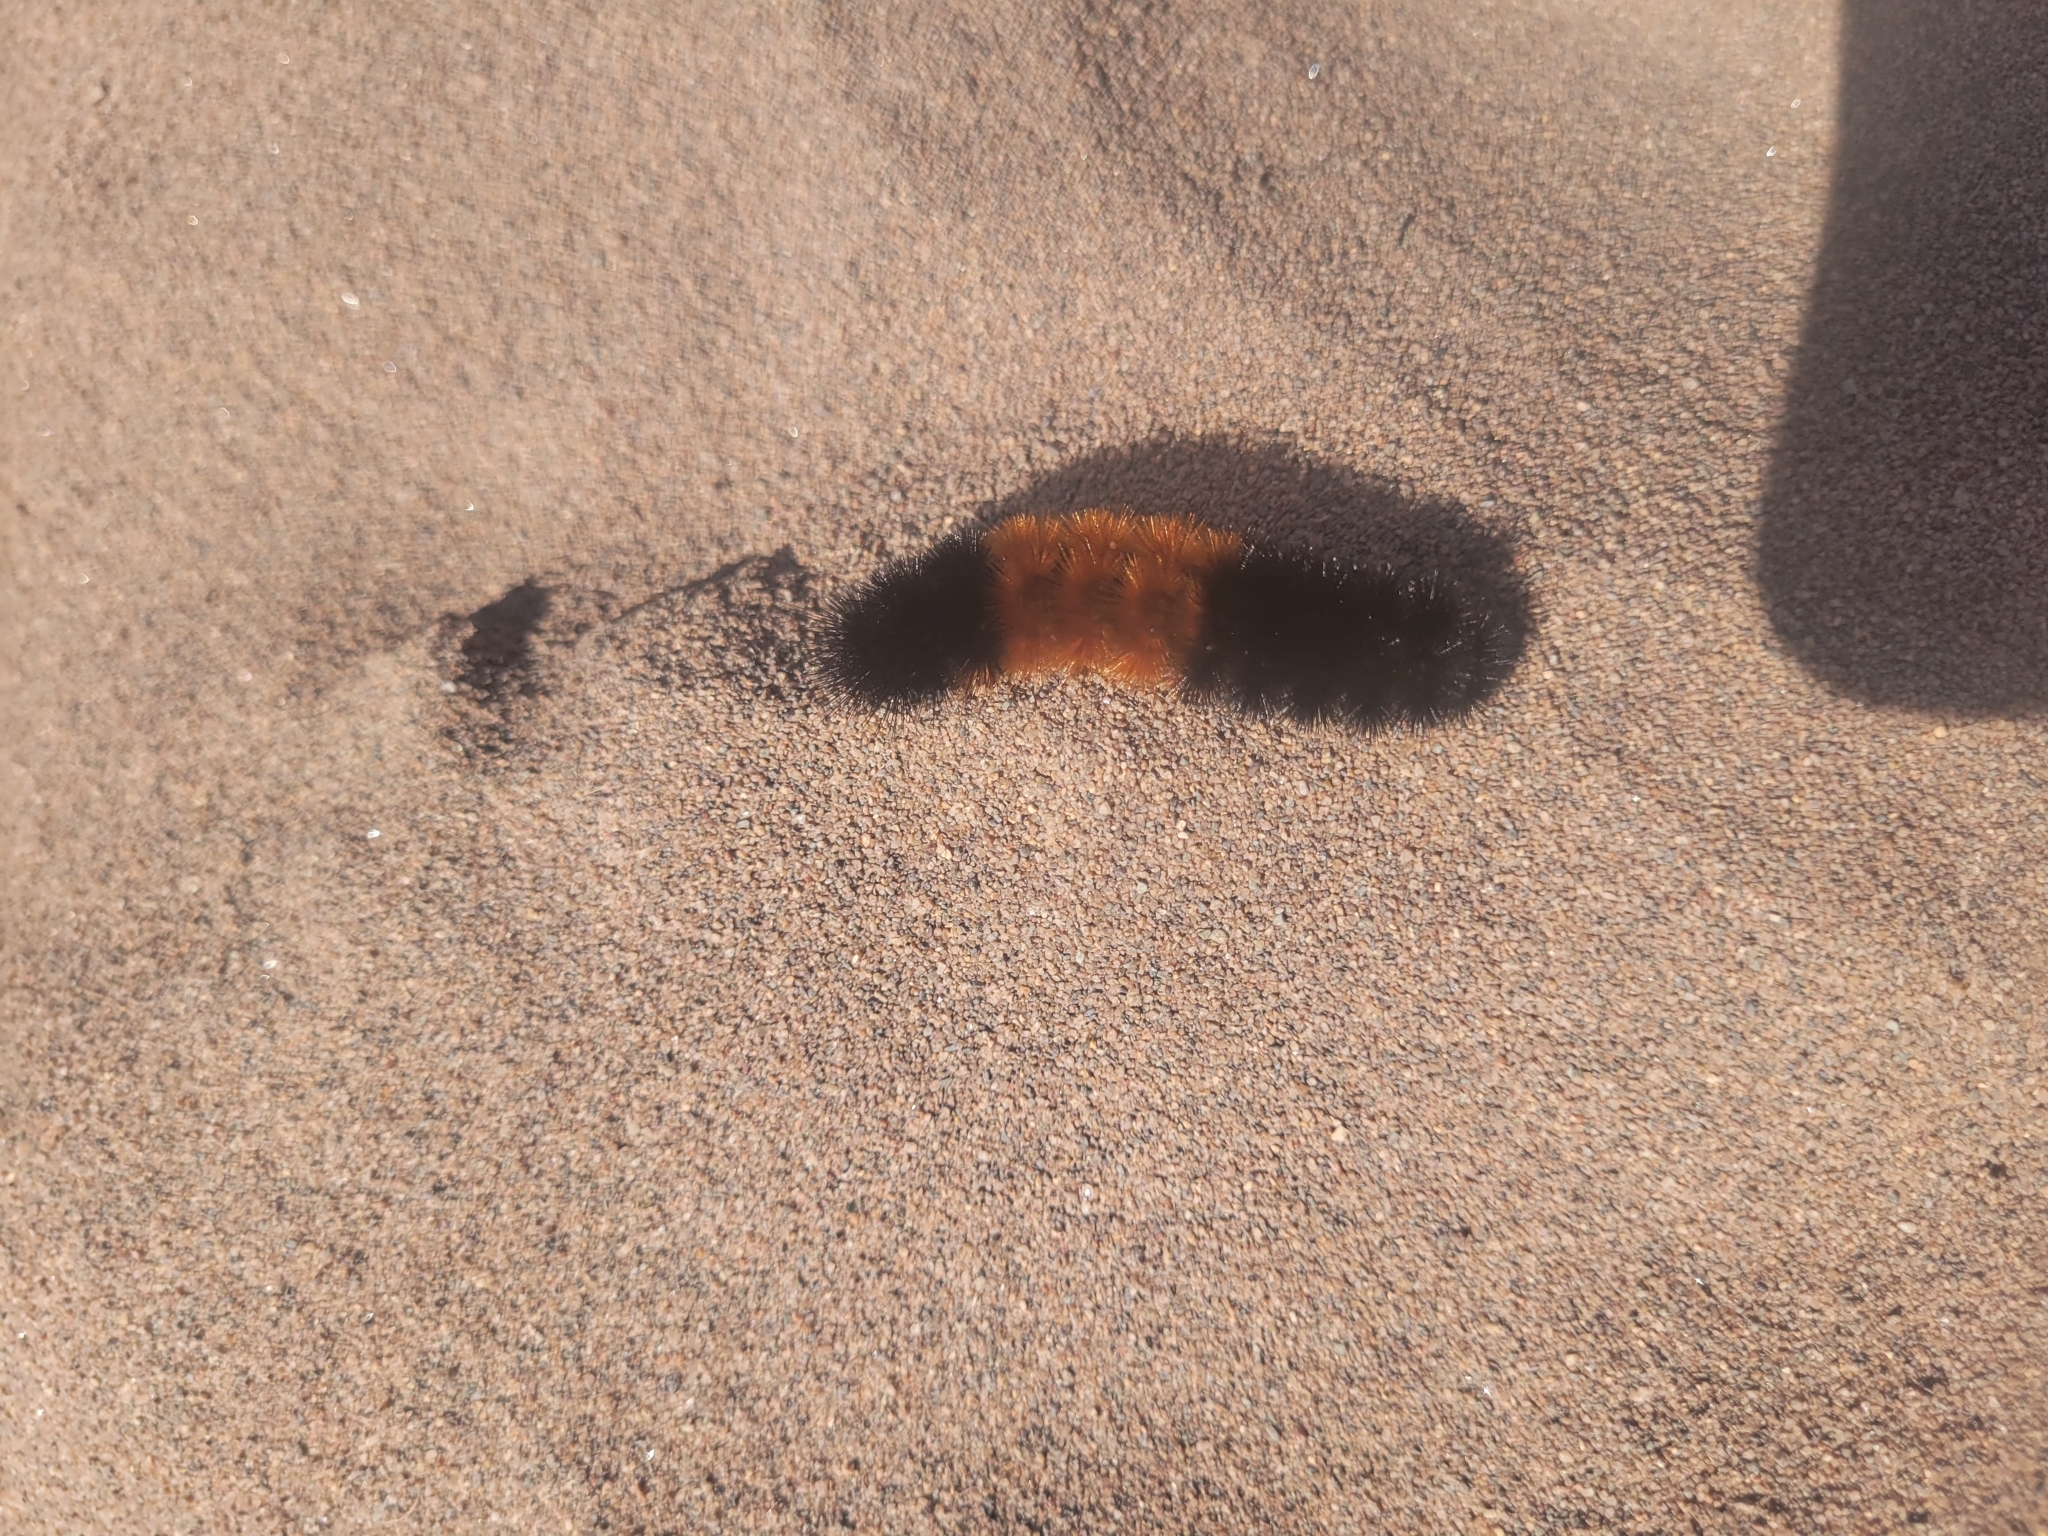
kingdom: Animalia
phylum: Arthropoda
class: Insecta
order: Lepidoptera
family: Erebidae
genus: Pyrrharctia
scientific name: Pyrrharctia isabella
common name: Isabella tiger moth
